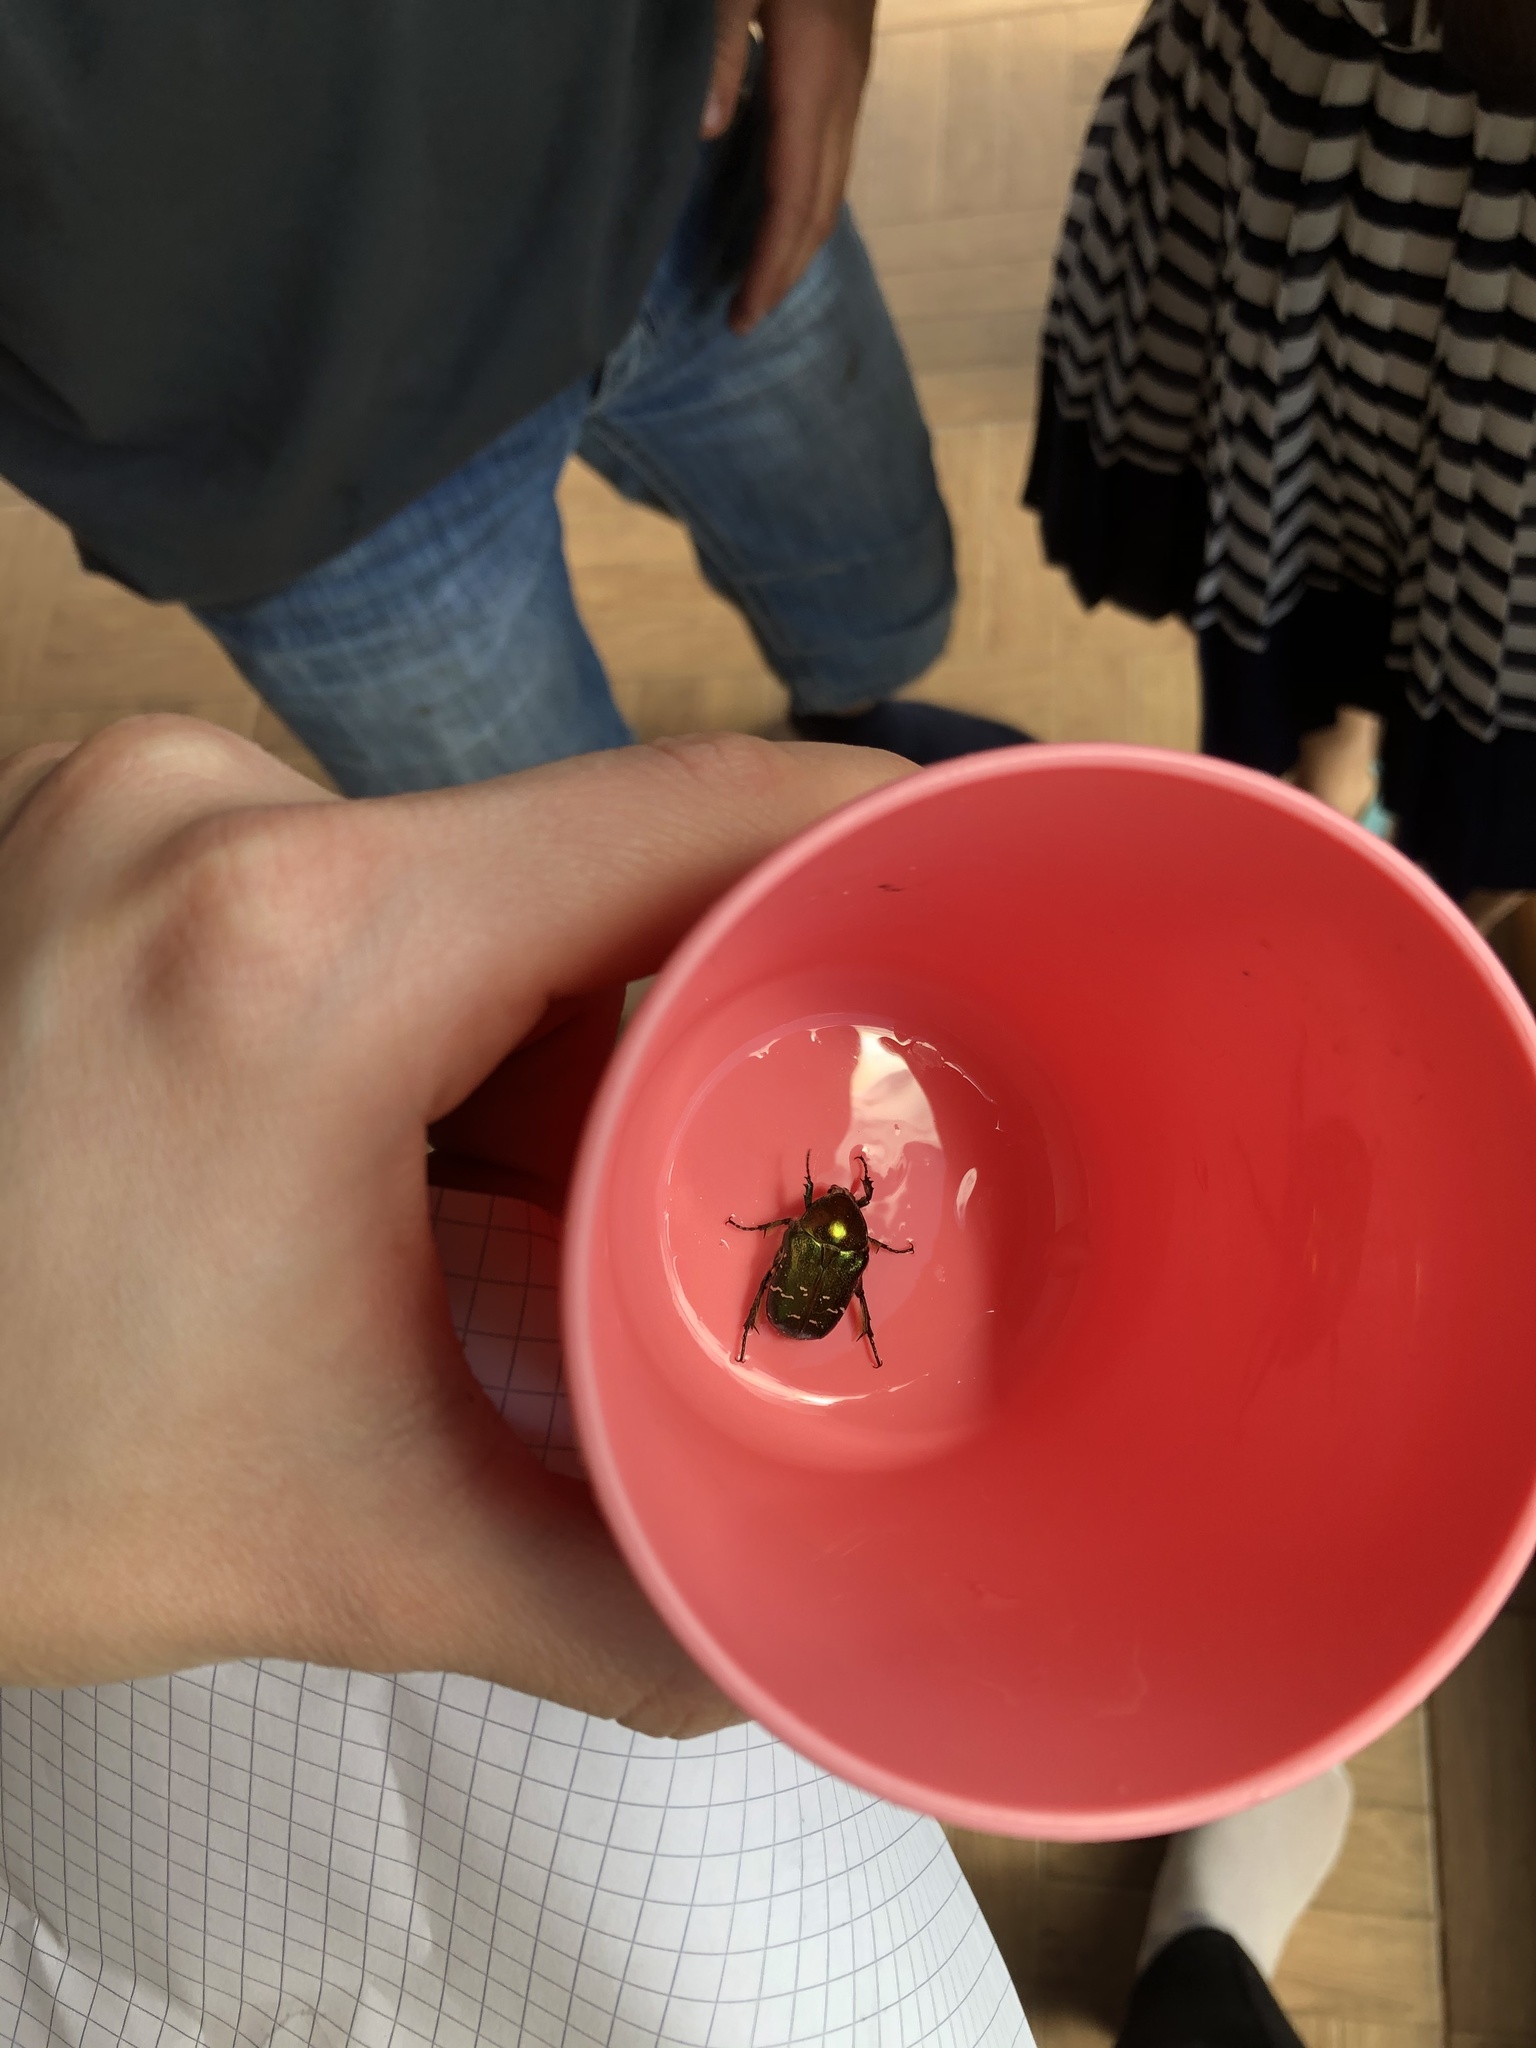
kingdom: Animalia
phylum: Arthropoda
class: Insecta
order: Coleoptera
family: Scarabaeidae
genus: Cetonia
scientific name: Cetonia aurata
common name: Rose chafer
